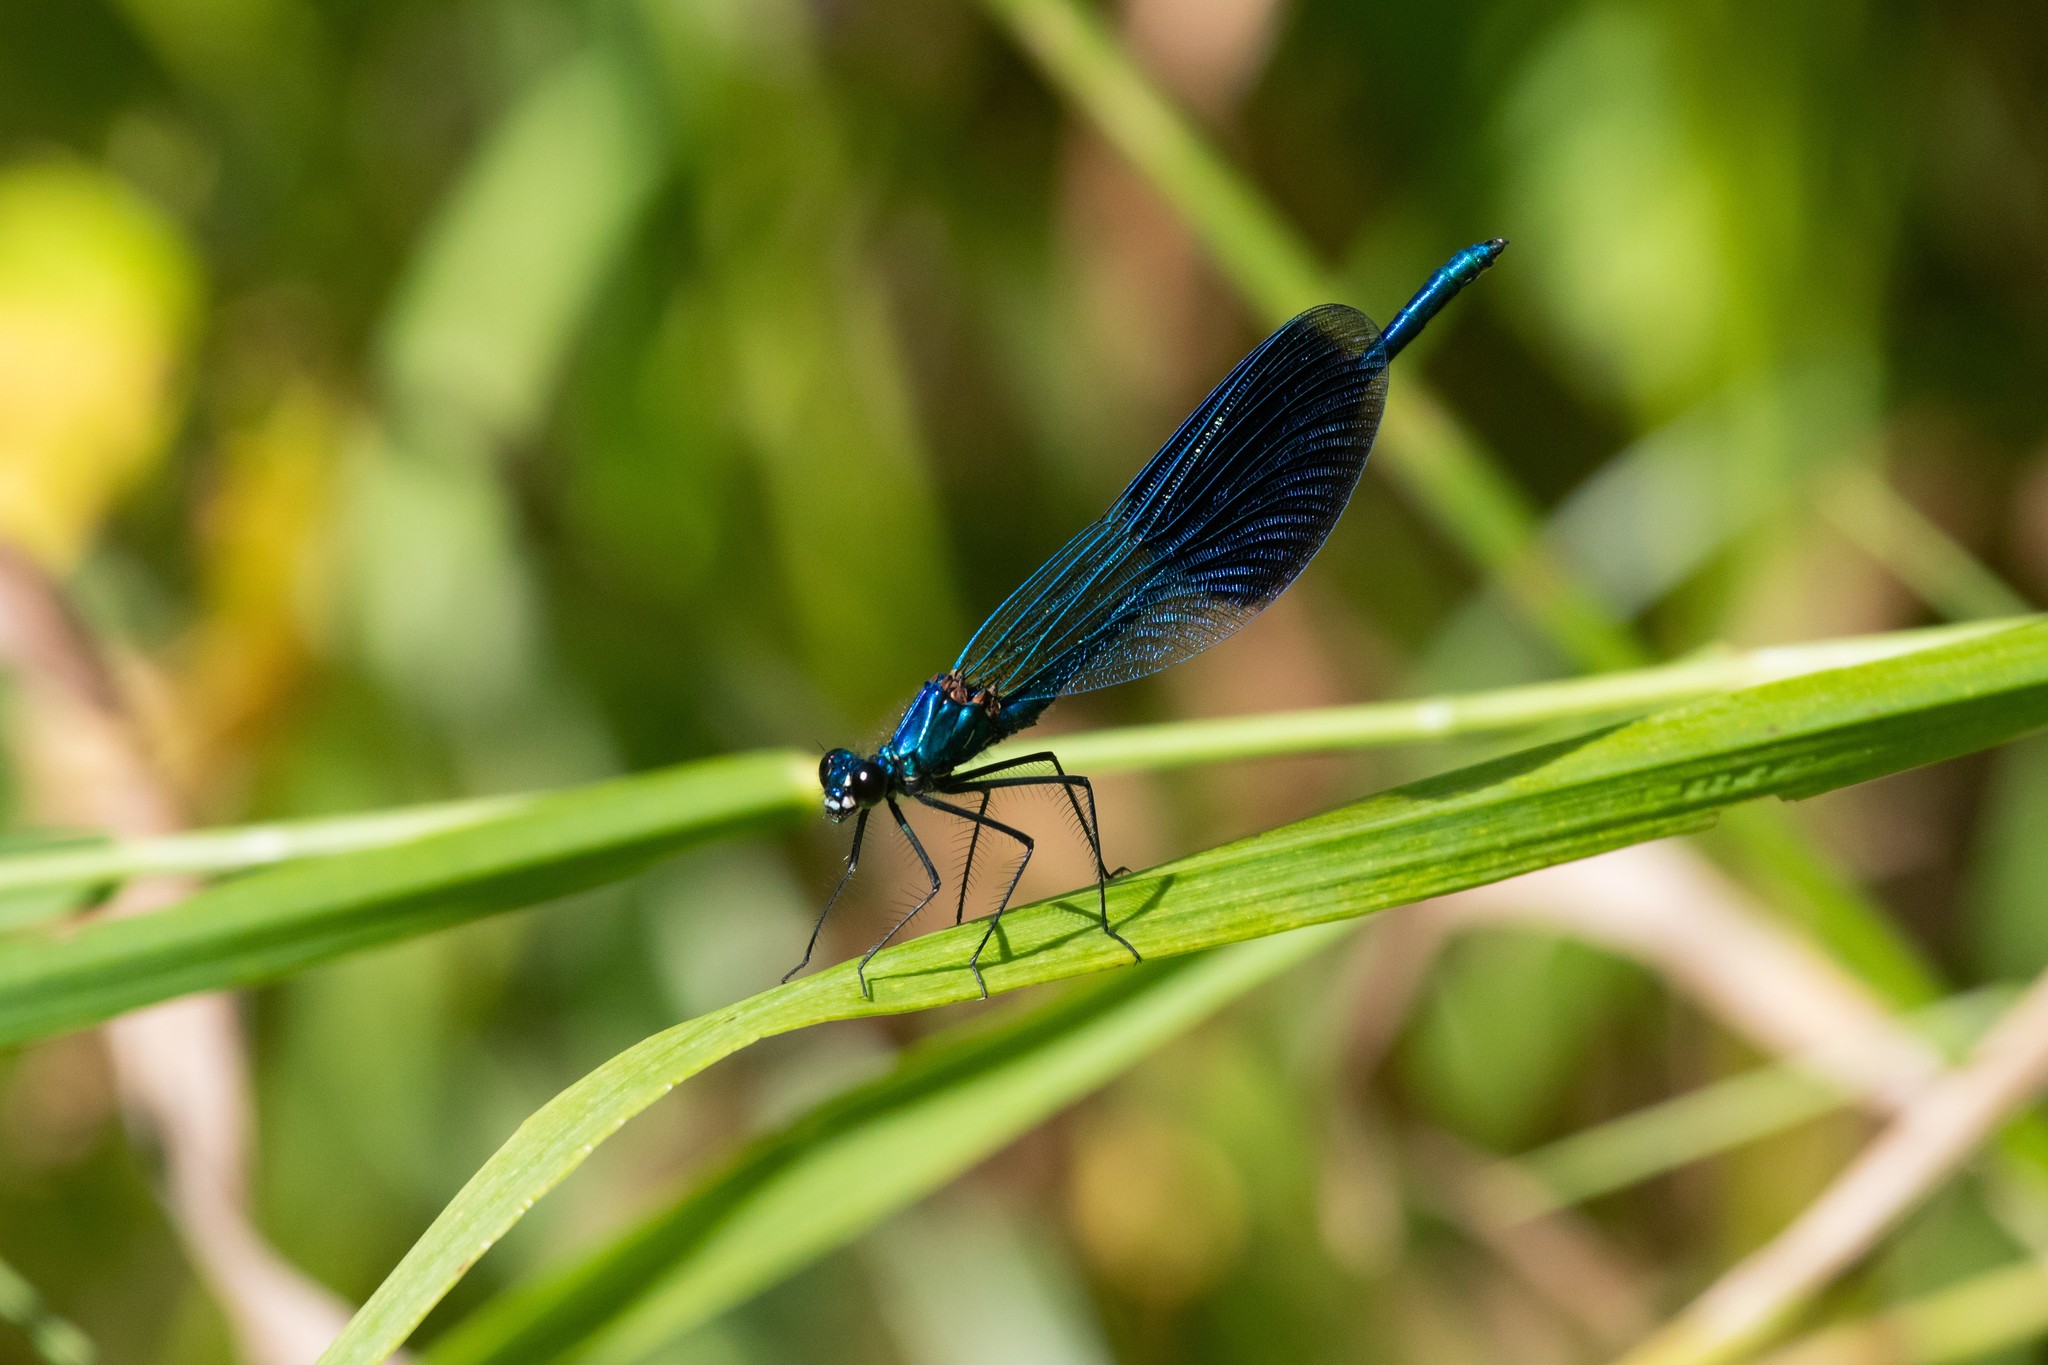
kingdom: Animalia
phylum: Arthropoda
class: Insecta
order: Odonata
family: Calopterygidae
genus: Calopteryx
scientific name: Calopteryx splendens
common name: Banded demoiselle
